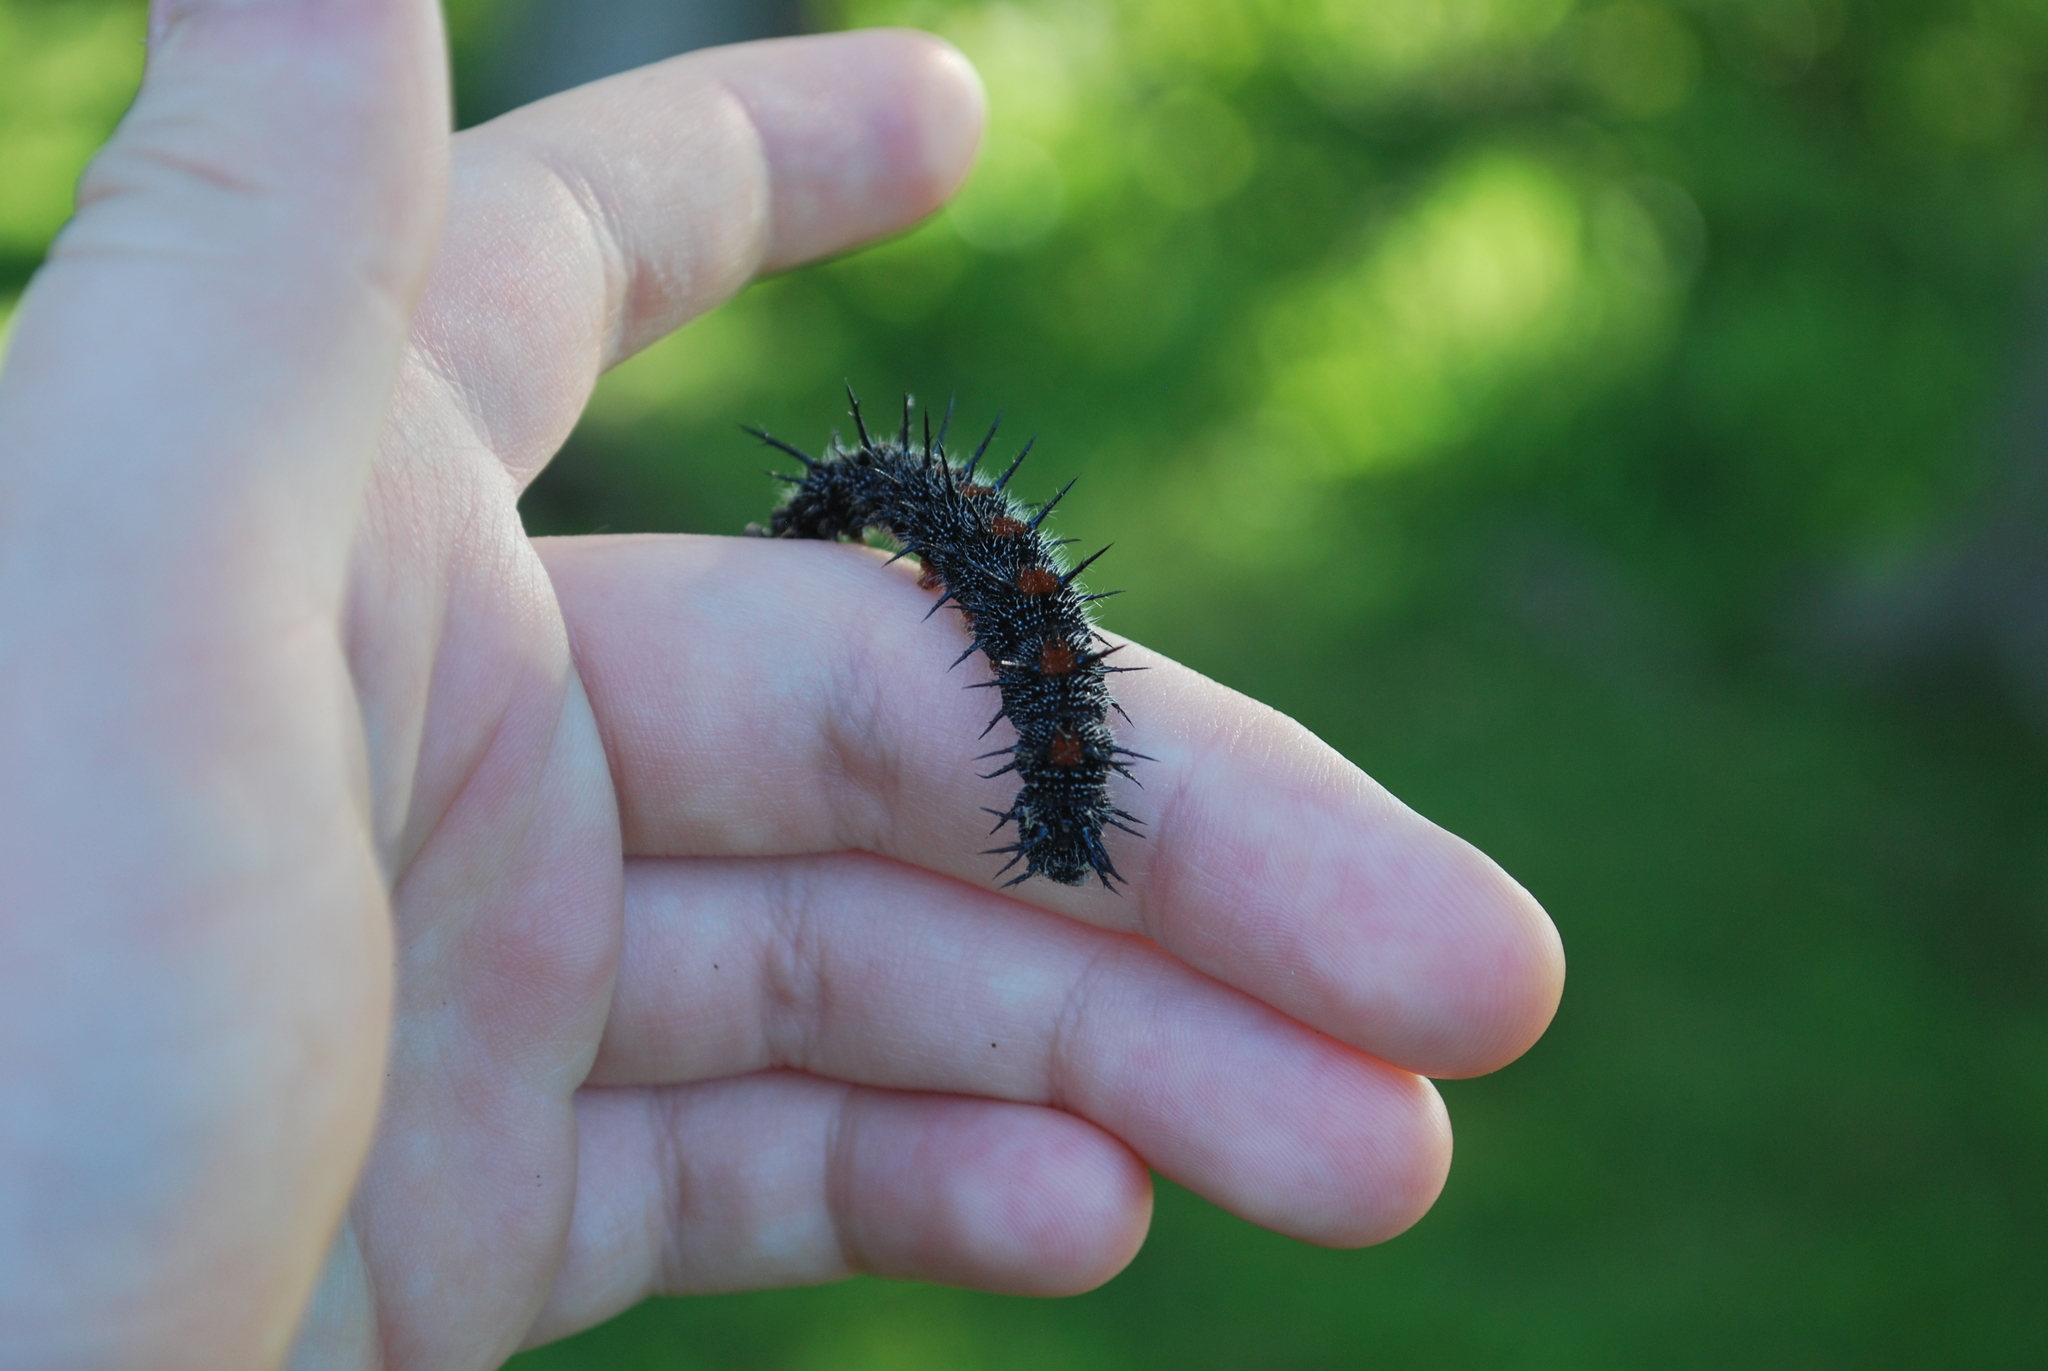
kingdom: Animalia
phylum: Arthropoda
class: Insecta
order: Lepidoptera
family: Nymphalidae
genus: Nymphalis
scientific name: Nymphalis antiopa
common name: Camberwell beauty
